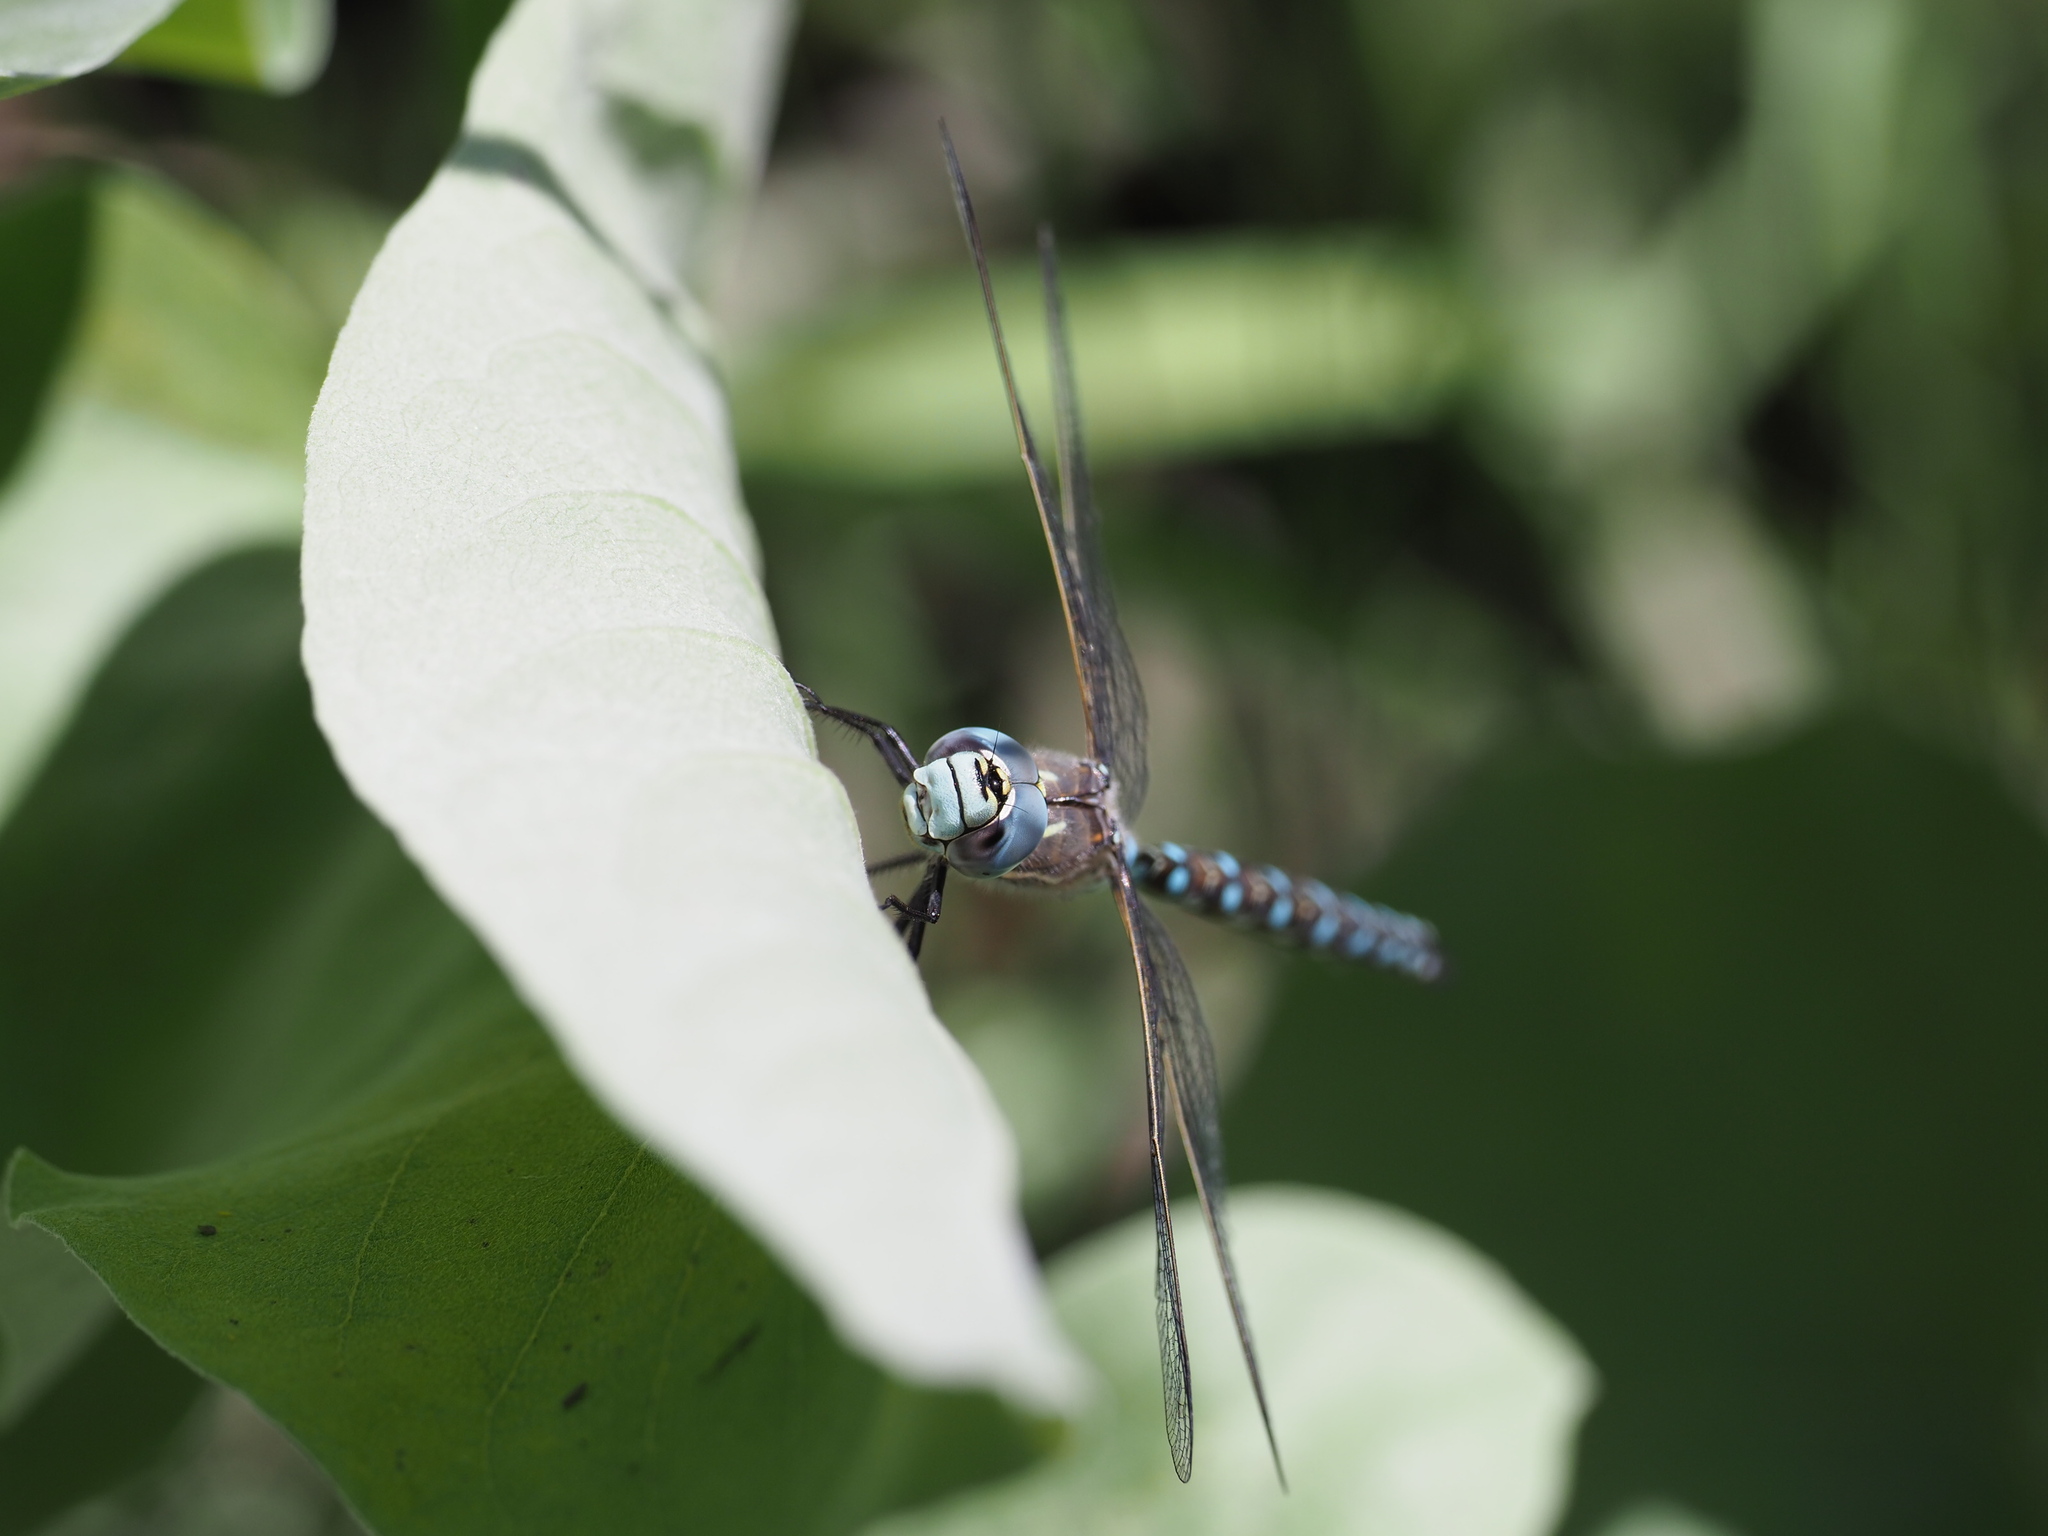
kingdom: Animalia
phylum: Arthropoda
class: Insecta
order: Odonata
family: Aeshnidae
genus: Rhionaeschna
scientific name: Rhionaeschna californica
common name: California darner
